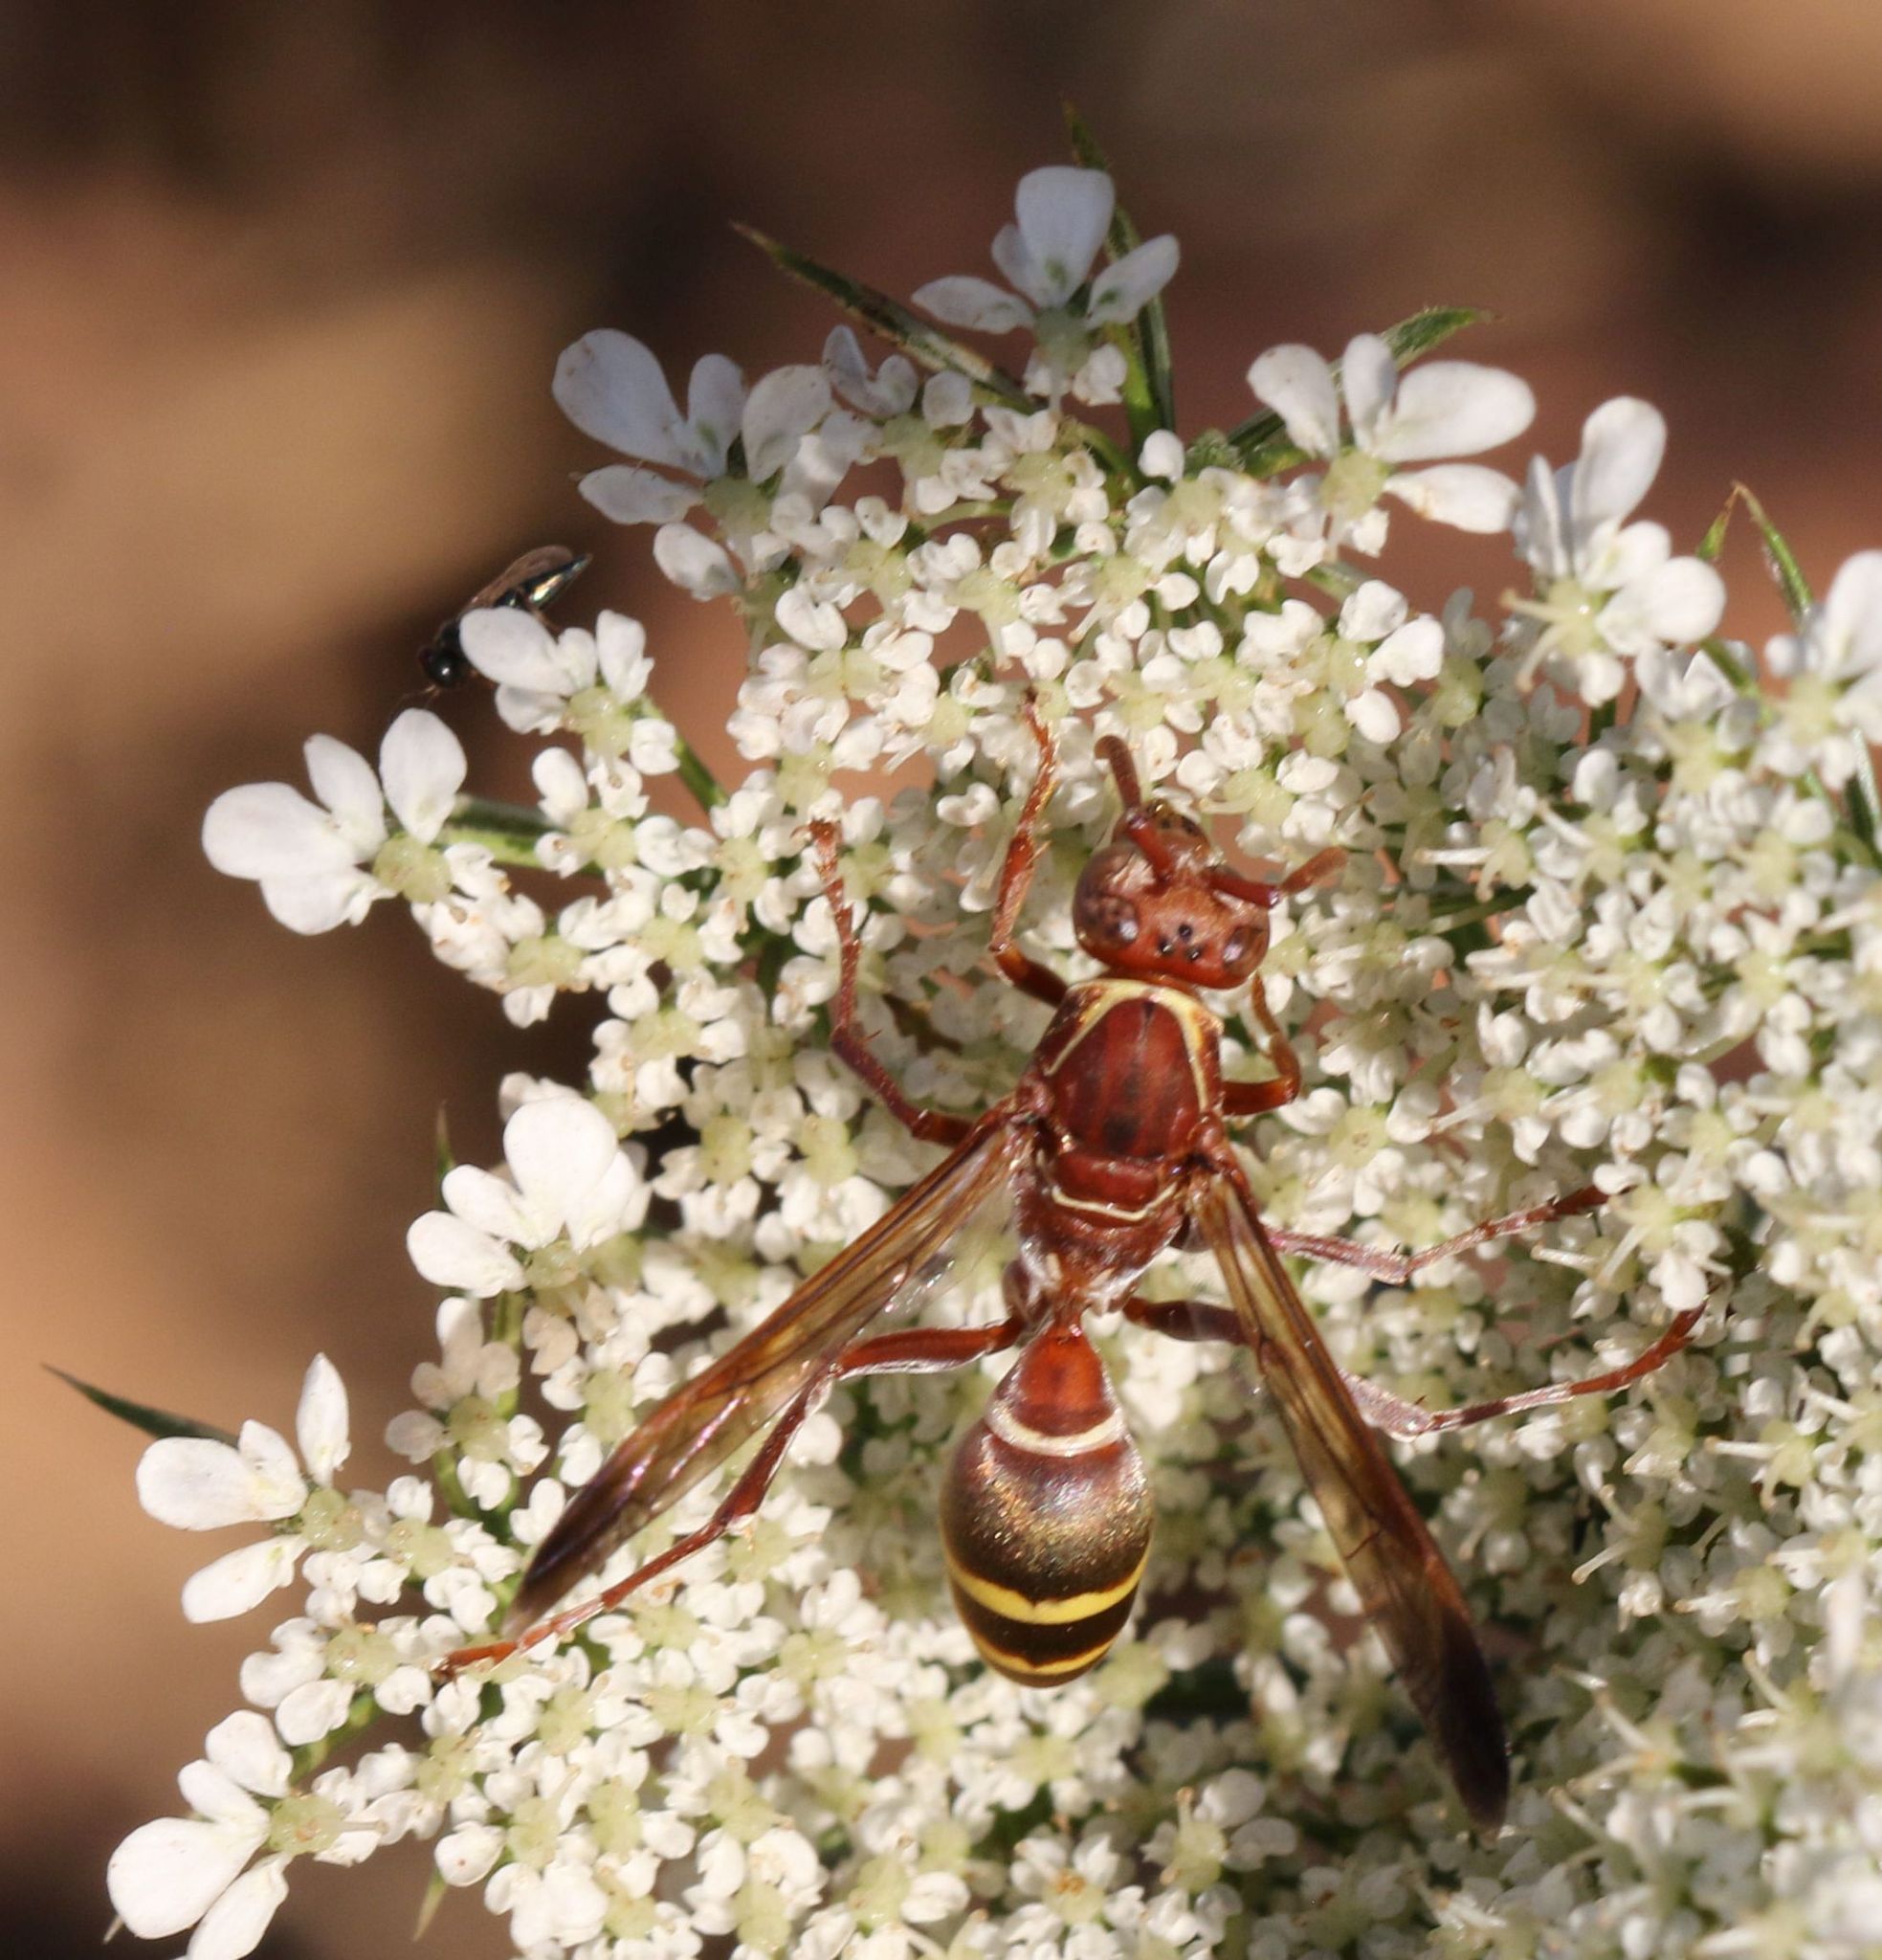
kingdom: Animalia
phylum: Arthropoda
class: Insecta
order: Hymenoptera
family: Eumenidae
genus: Polistes
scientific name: Polistes badius
